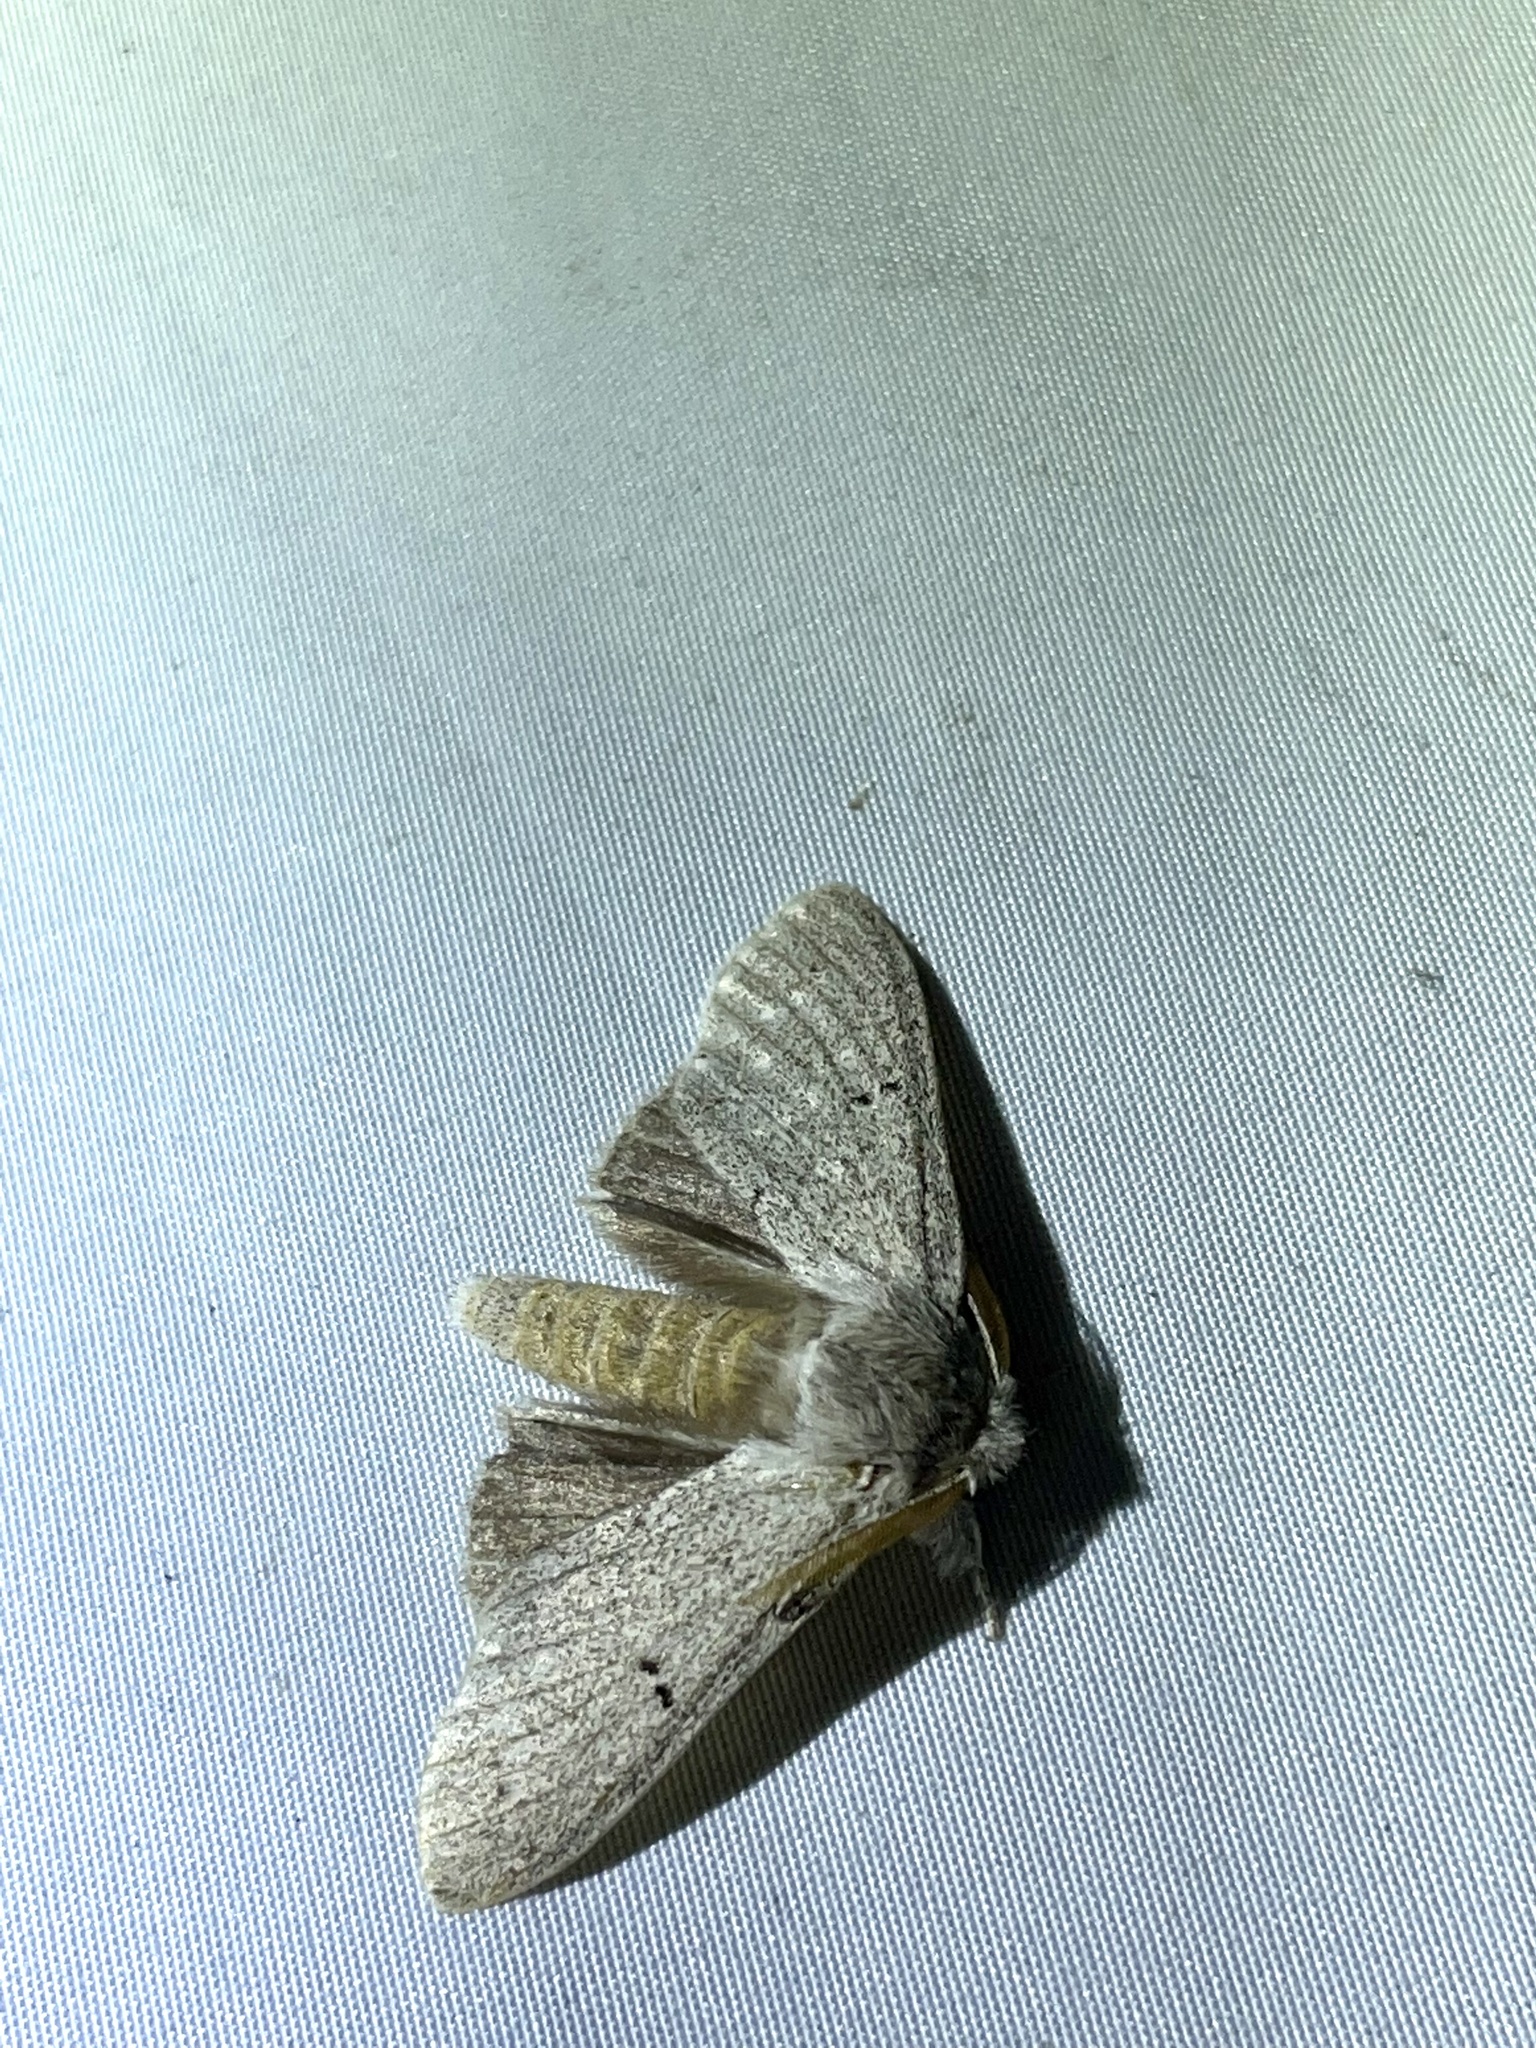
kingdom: Animalia
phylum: Arthropoda
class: Insecta
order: Lepidoptera
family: Notodontidae
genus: Cnethodonta
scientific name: Cnethodonta grisescens
